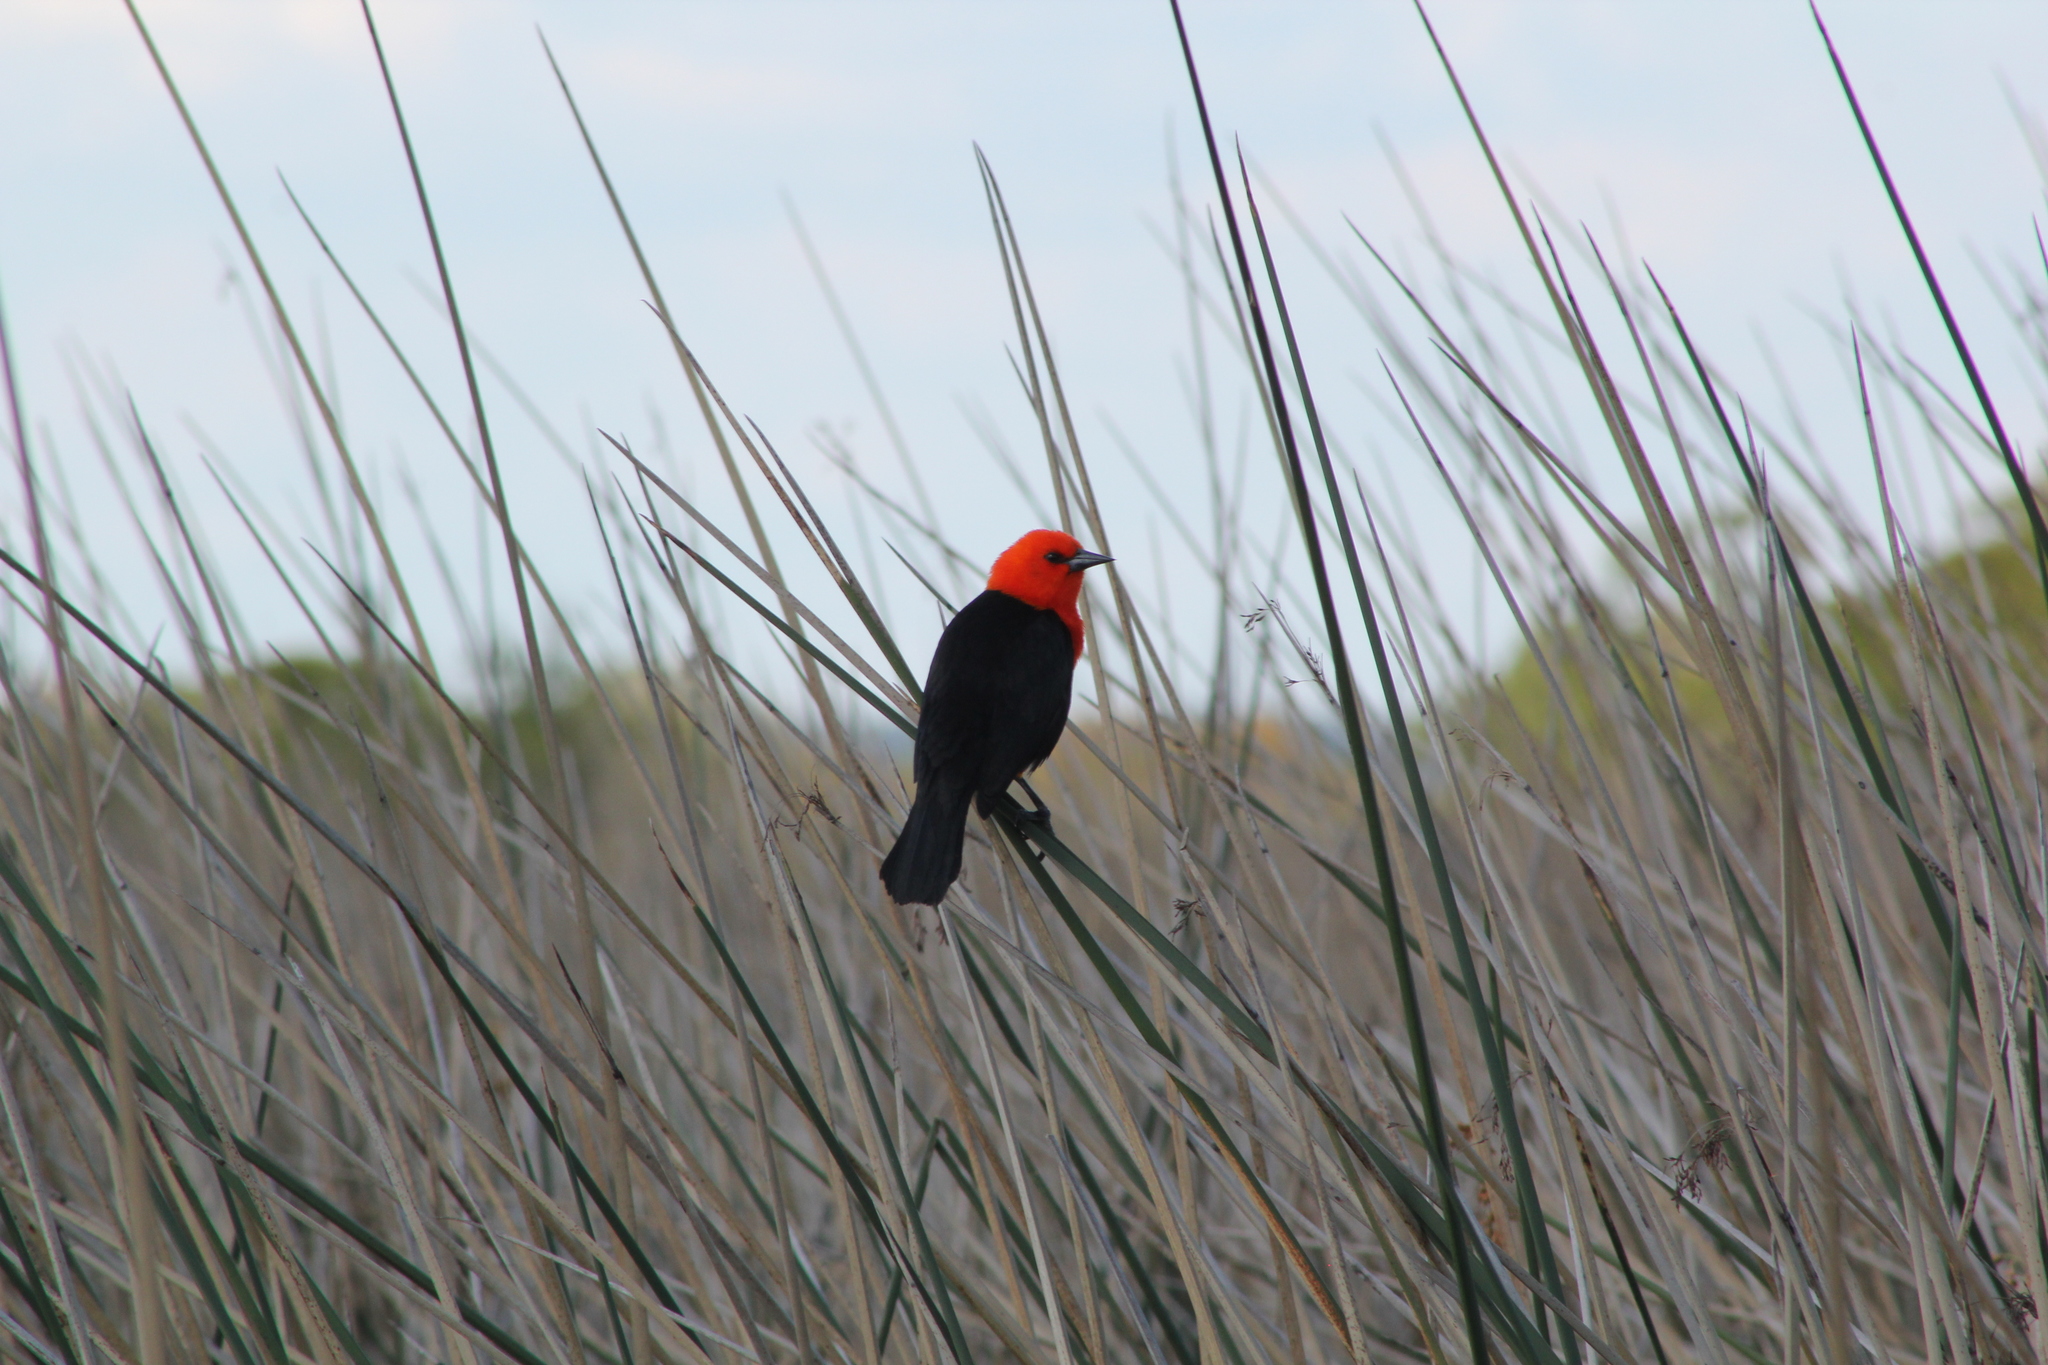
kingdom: Animalia
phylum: Chordata
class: Aves
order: Passeriformes
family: Icteridae
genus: Amblyramphus
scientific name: Amblyramphus holosericeus
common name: Scarlet-headed blackbird
